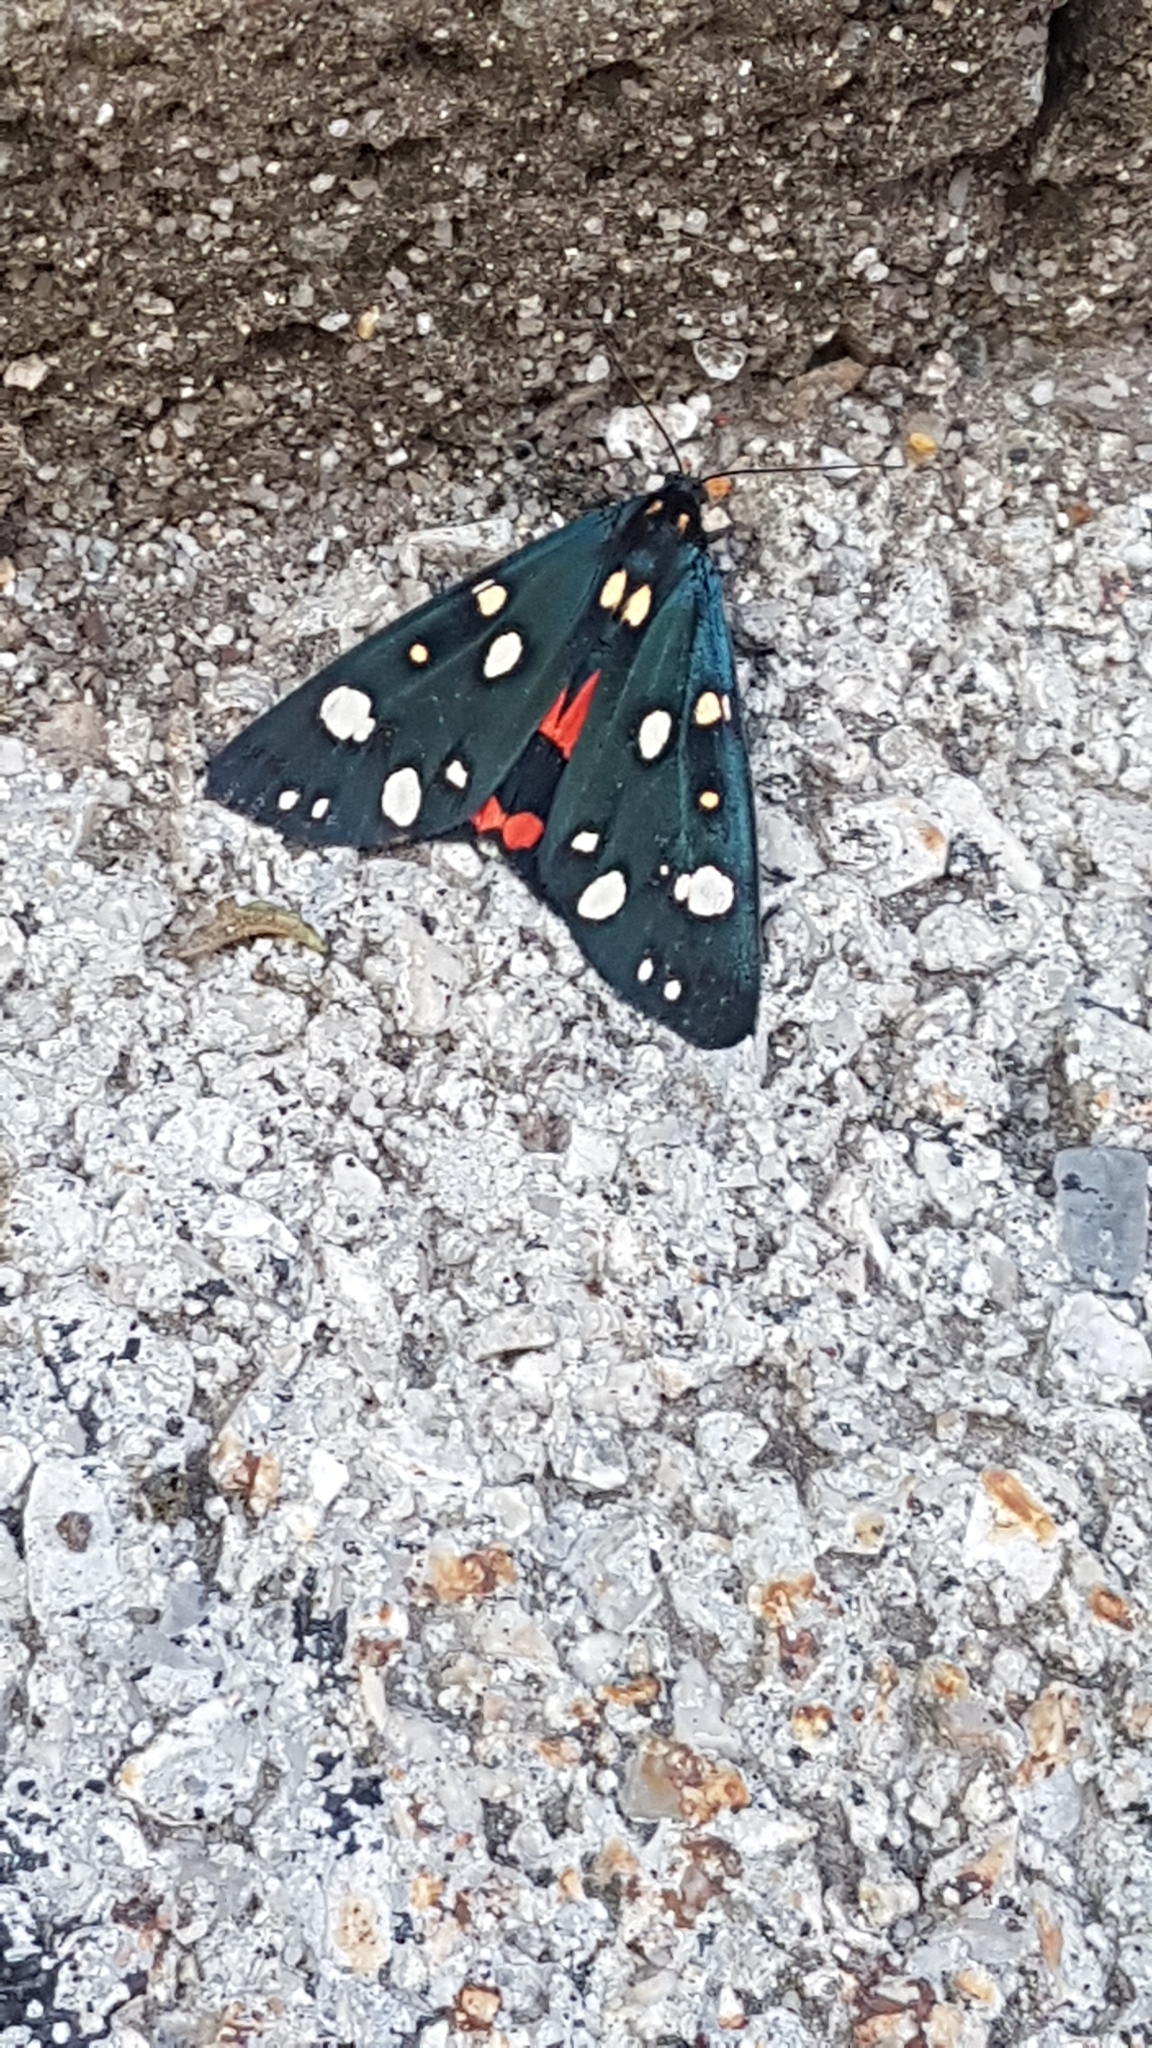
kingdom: Animalia
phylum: Arthropoda
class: Insecta
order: Lepidoptera
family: Erebidae
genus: Callimorpha
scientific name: Callimorpha dominula
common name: Scarlet tiger
